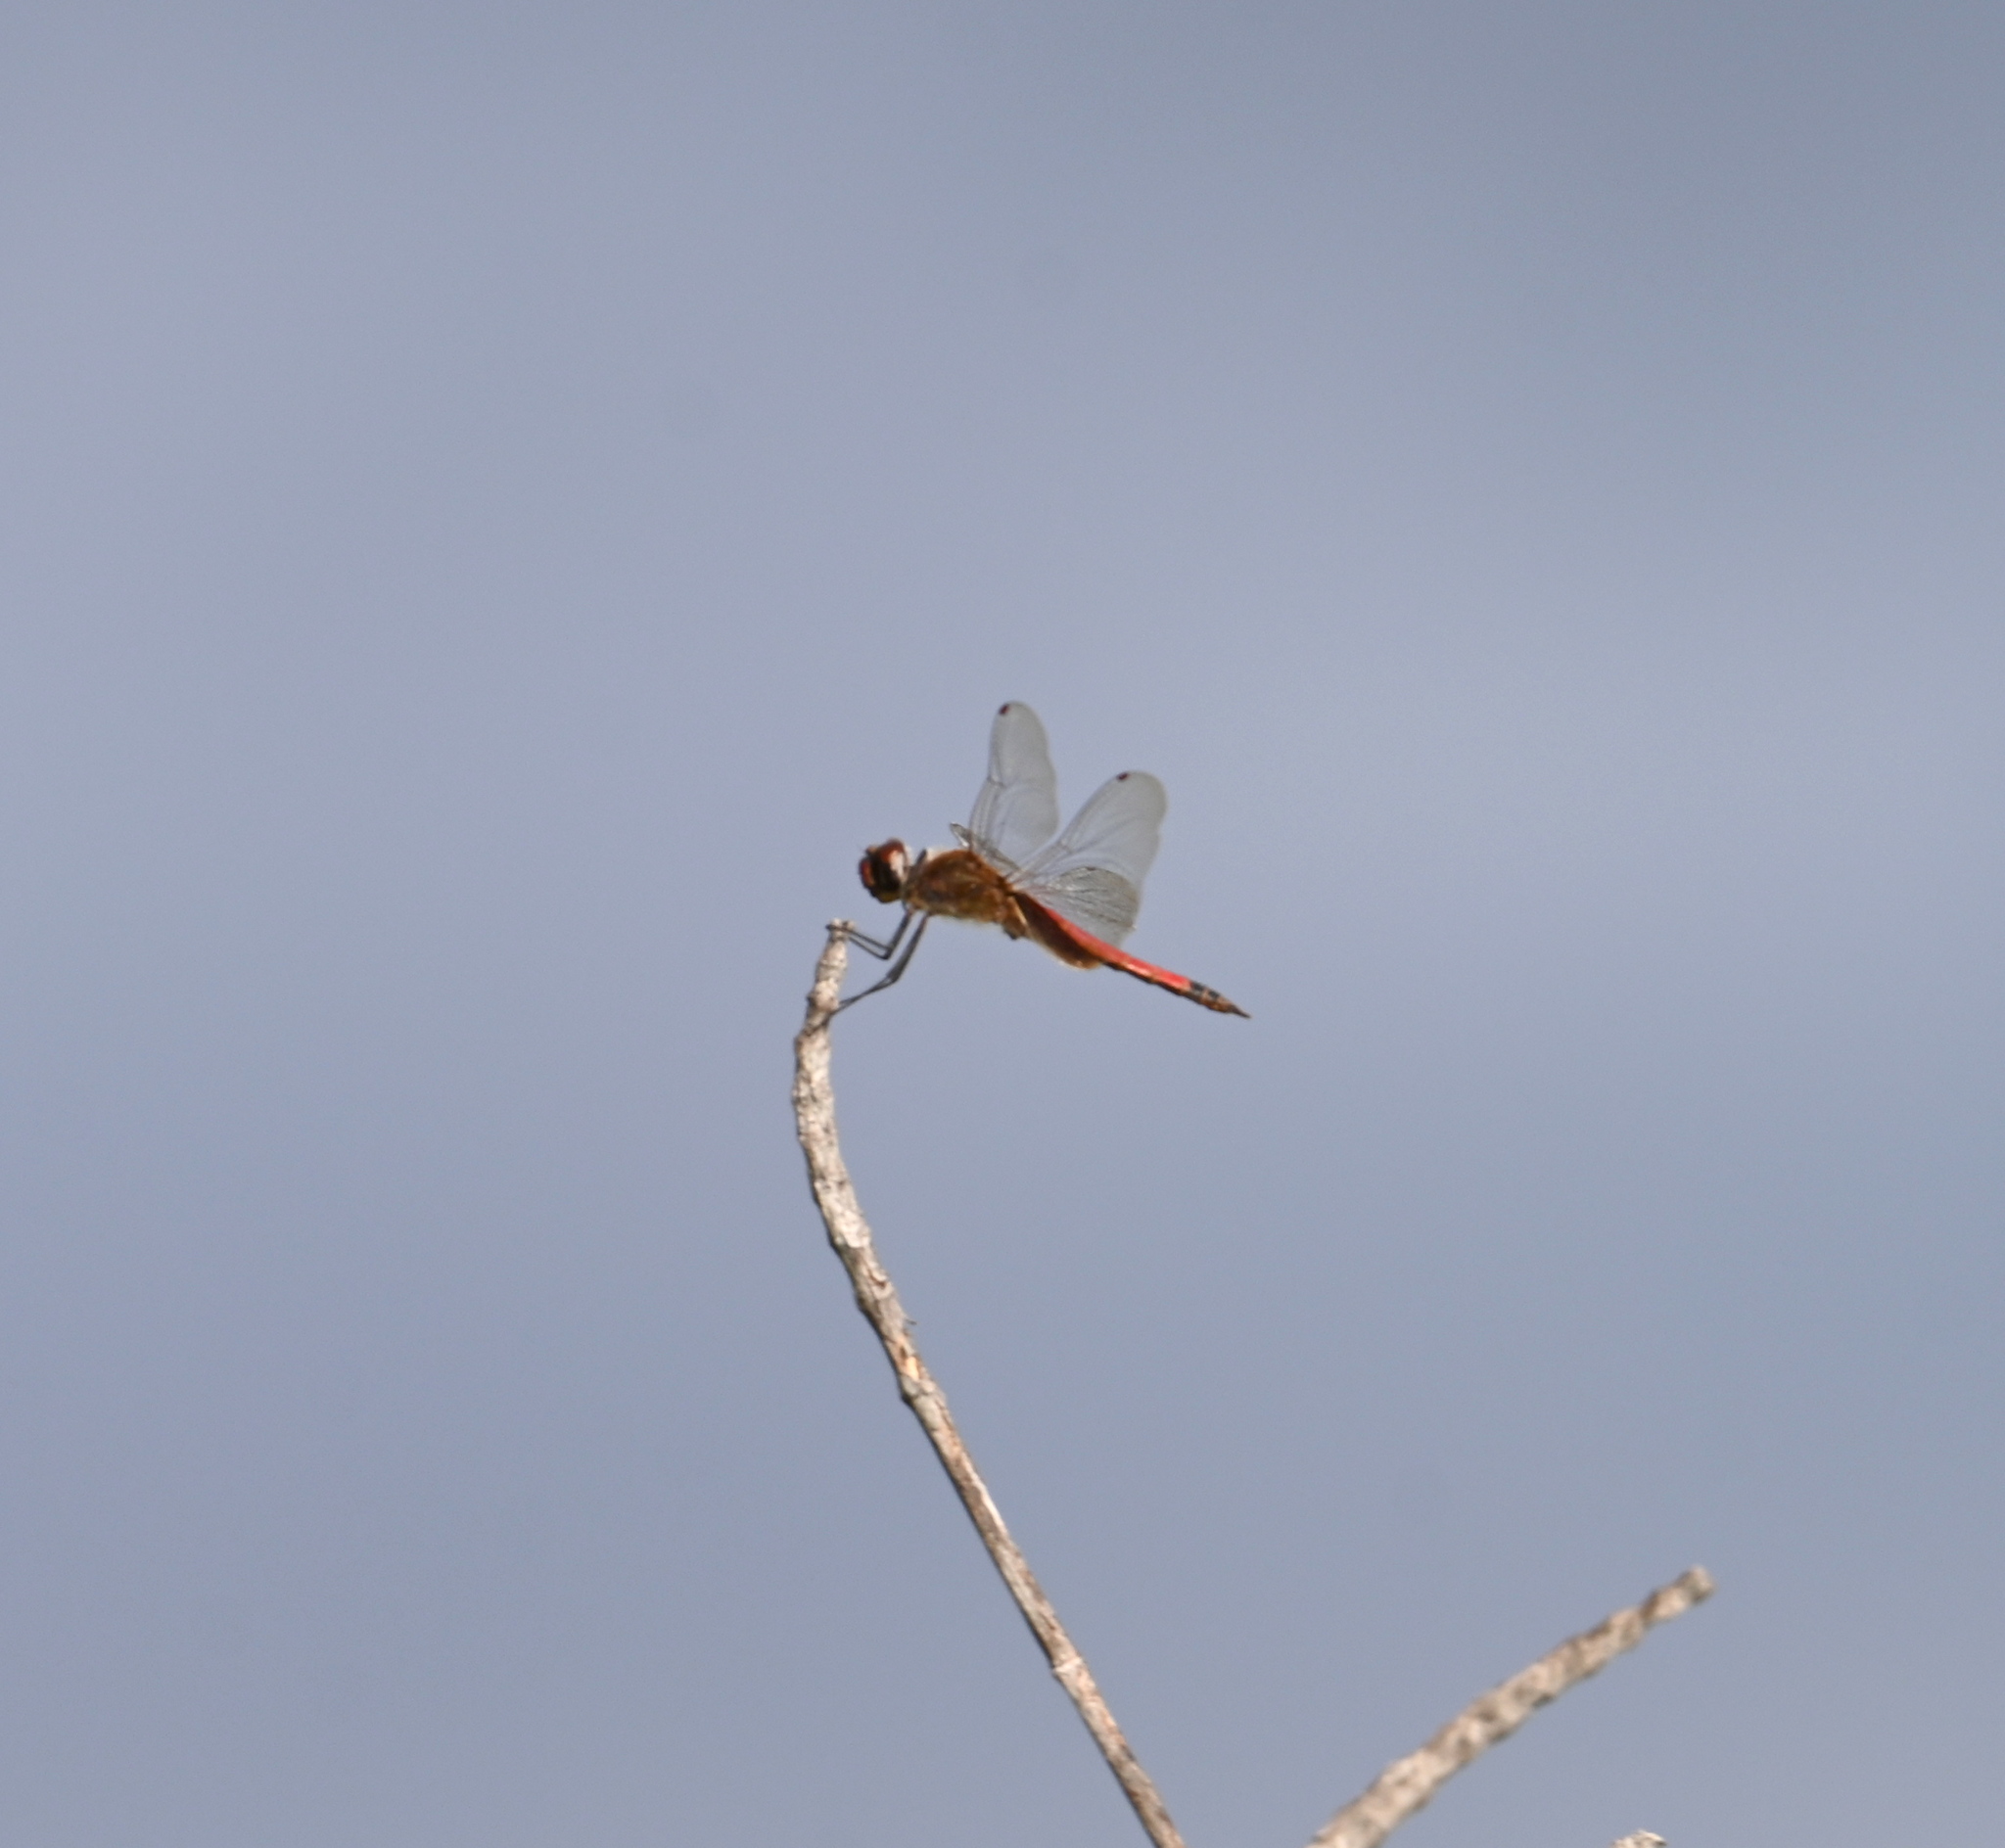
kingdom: Animalia
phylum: Arthropoda
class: Insecta
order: Odonata
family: Libellulidae
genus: Tramea
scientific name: Tramea darwini
